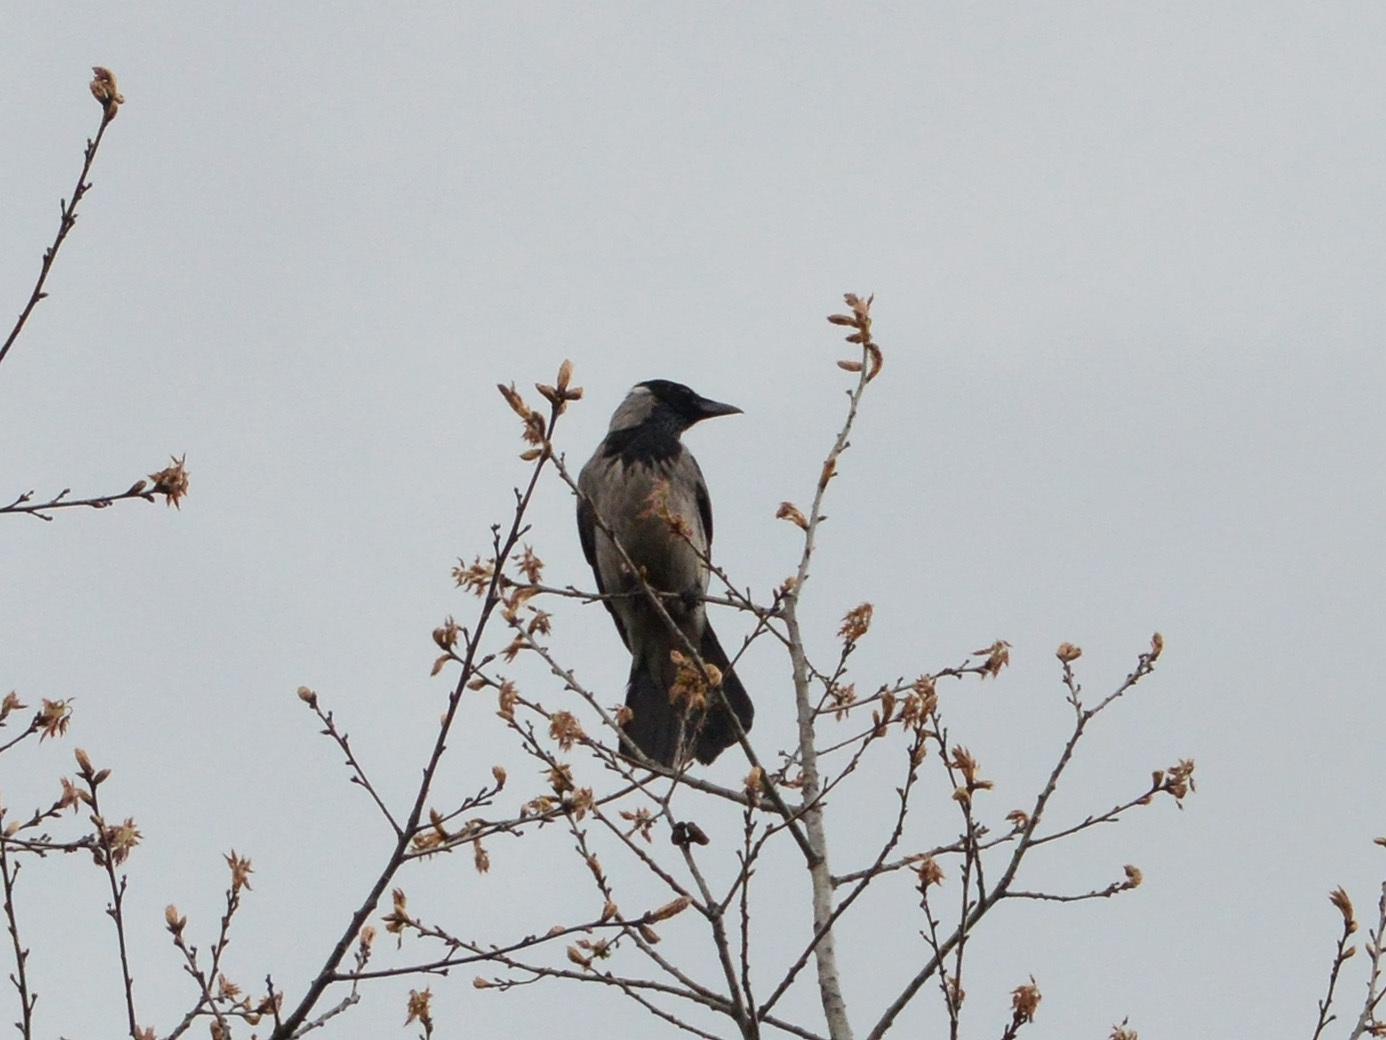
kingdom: Animalia
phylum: Chordata
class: Aves
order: Passeriformes
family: Corvidae
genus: Corvus
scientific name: Corvus cornix
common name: Hooded crow
